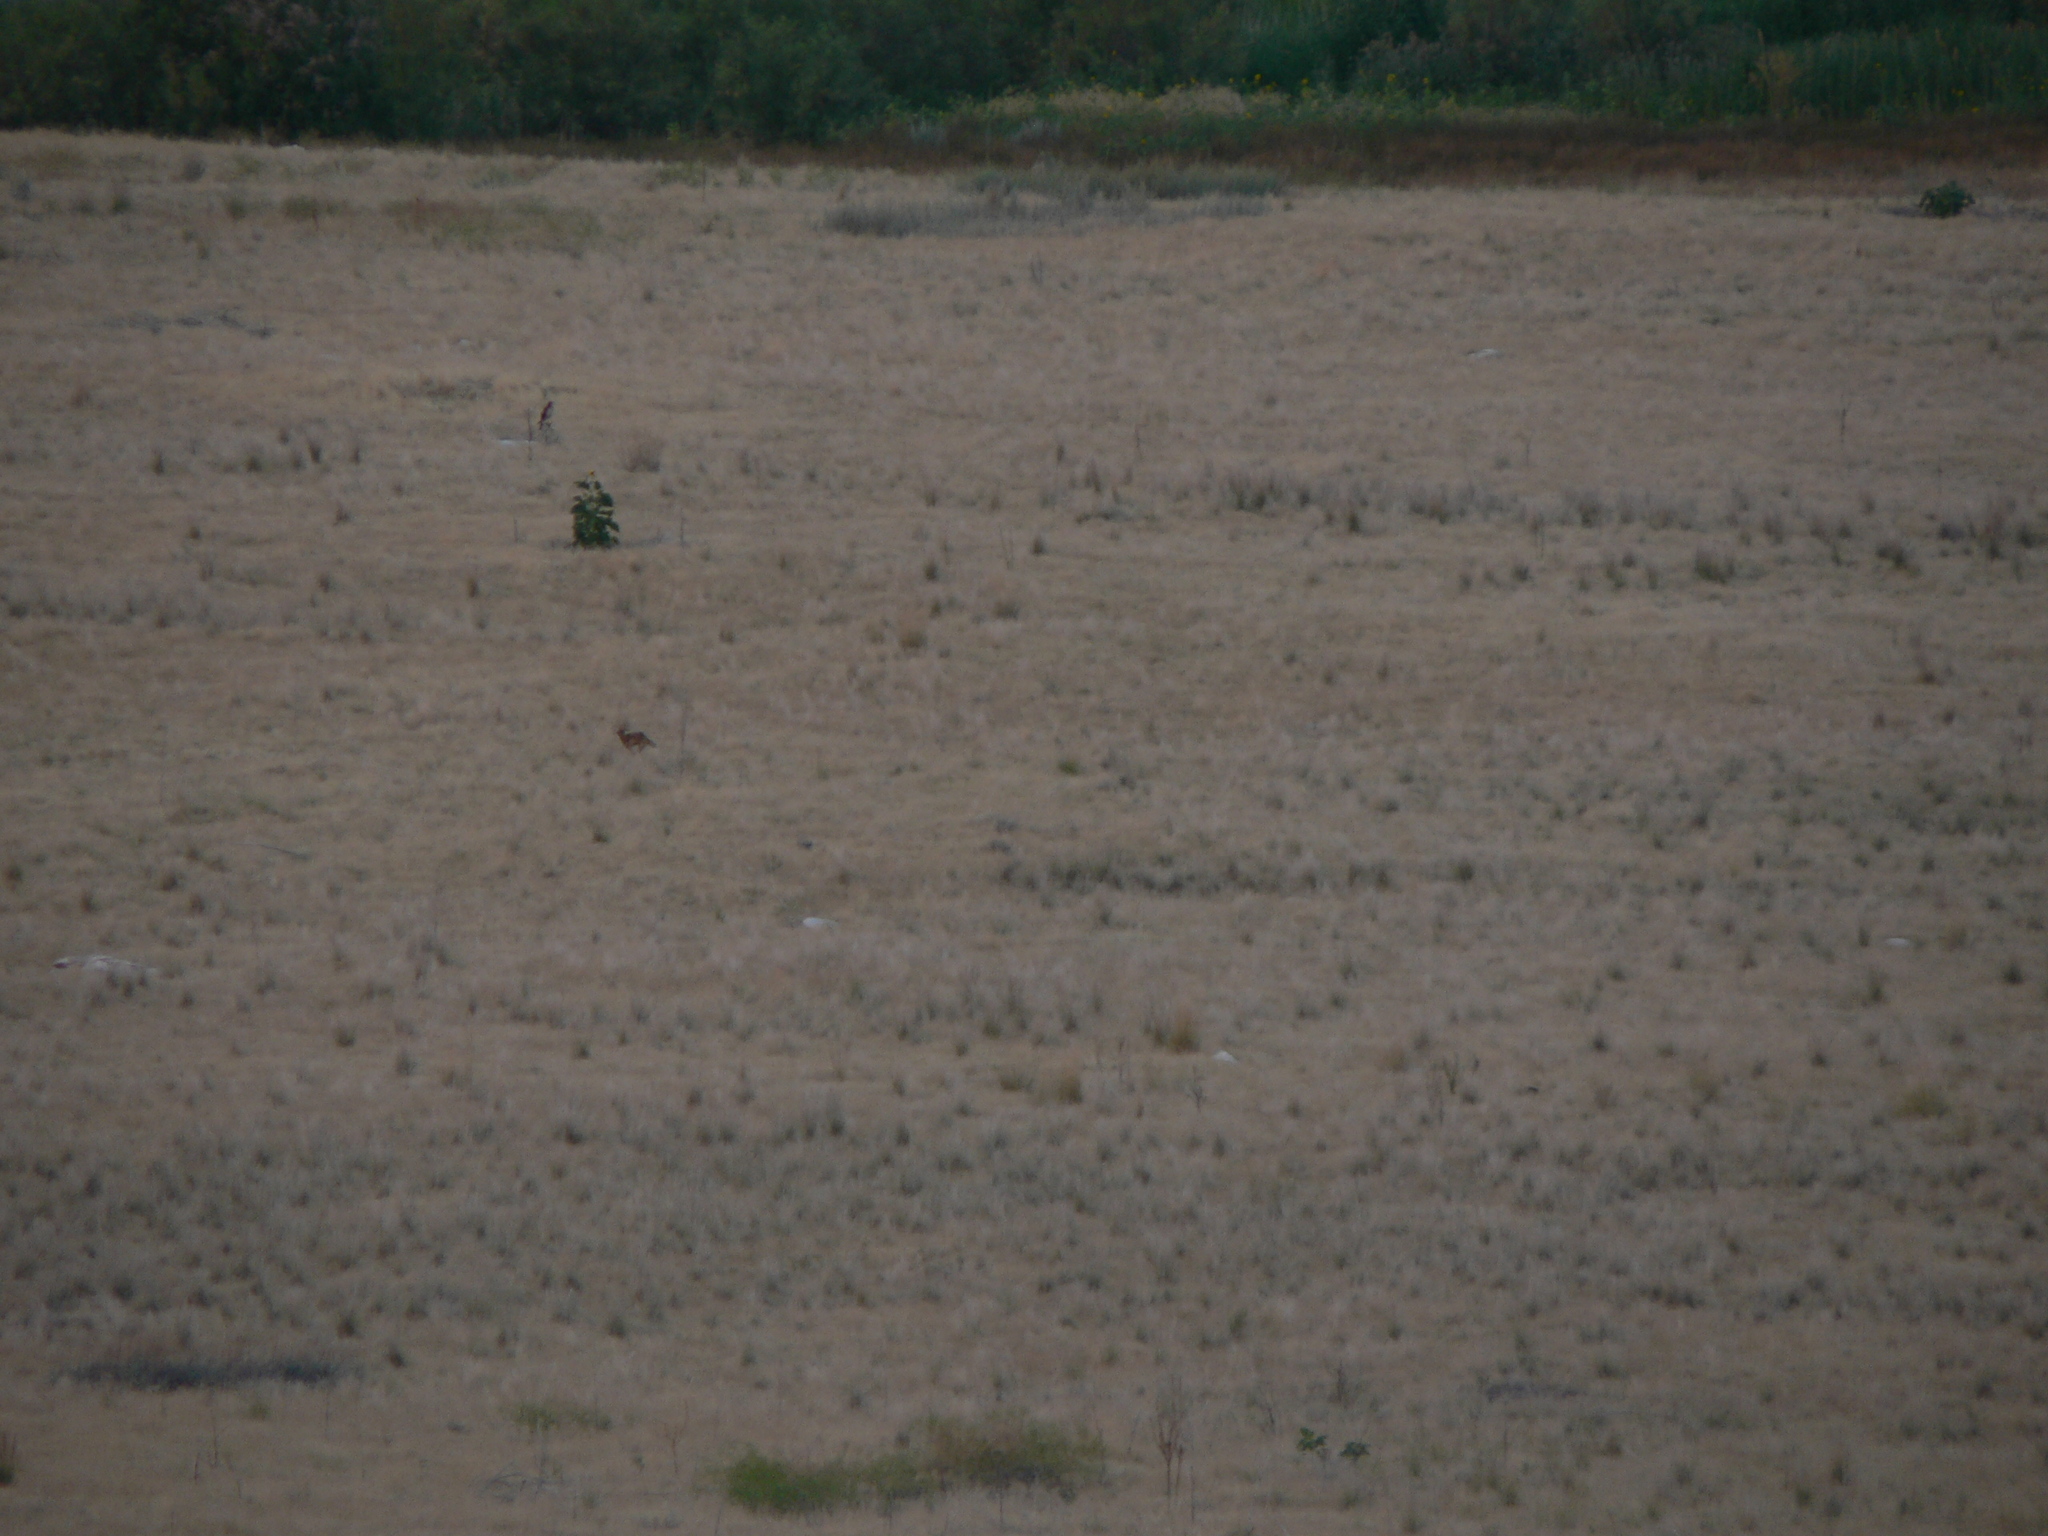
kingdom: Animalia
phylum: Chordata
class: Mammalia
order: Carnivora
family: Canidae
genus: Canis
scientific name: Canis latrans
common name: Coyote
